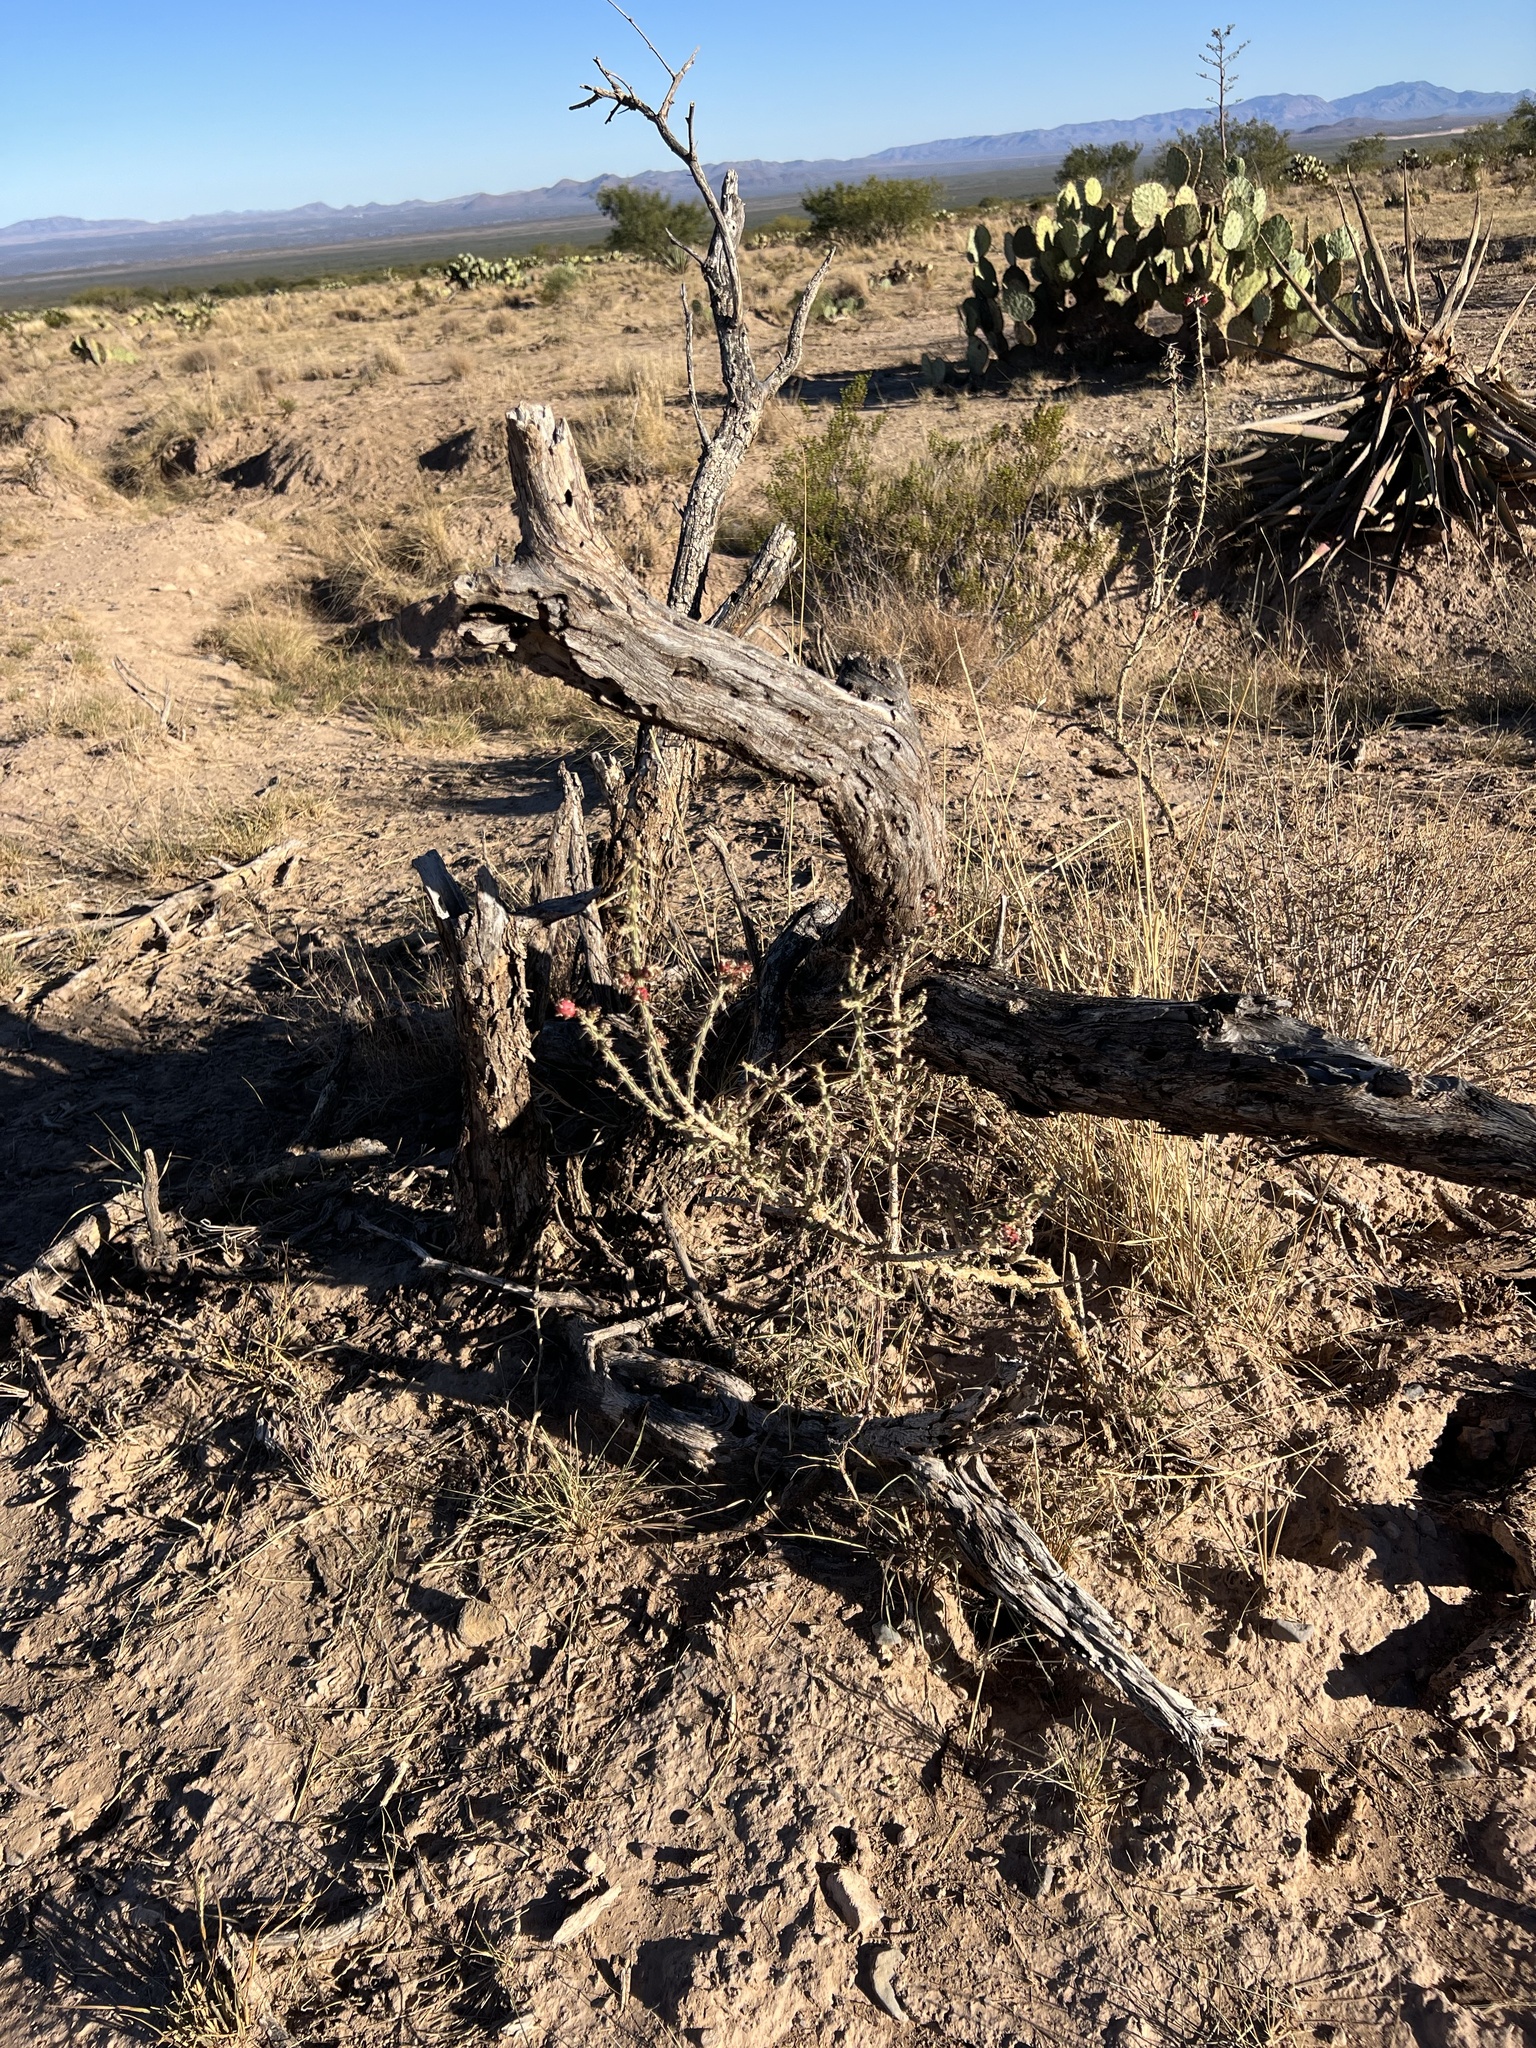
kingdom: Plantae
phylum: Tracheophyta
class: Magnoliopsida
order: Caryophyllales
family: Cactaceae
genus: Cylindropuntia
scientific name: Cylindropuntia leptocaulis
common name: Christmas cactus
